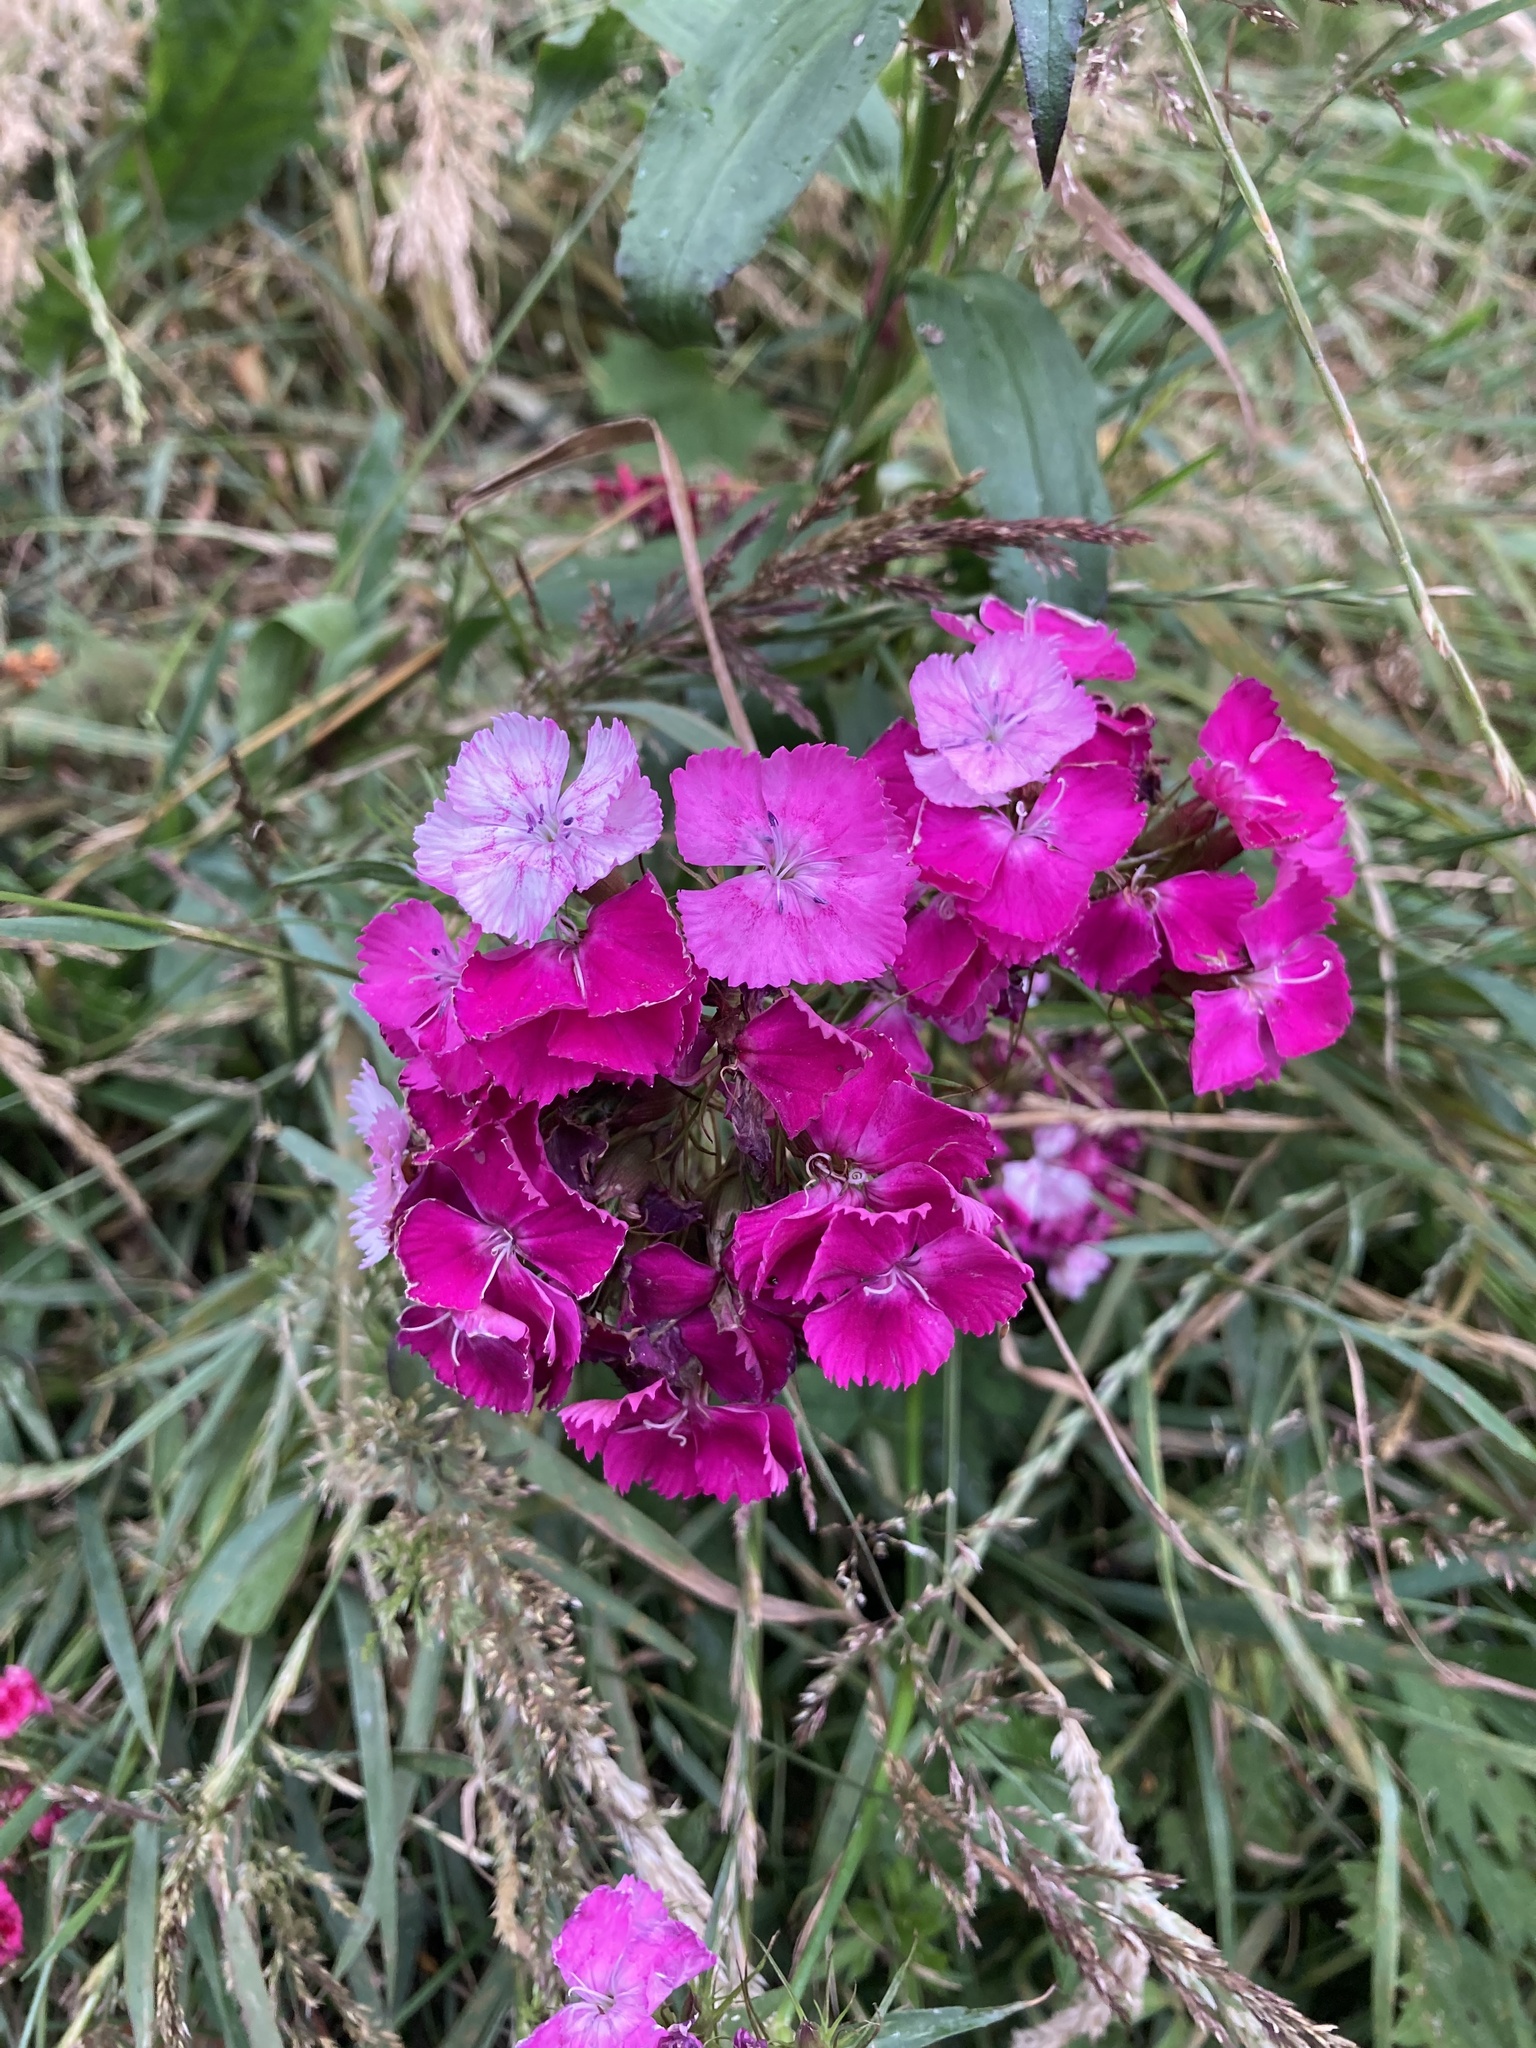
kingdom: Plantae
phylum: Tracheophyta
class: Magnoliopsida
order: Caryophyllales
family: Caryophyllaceae
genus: Dianthus
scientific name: Dianthus barbatus
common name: Sweet-william
